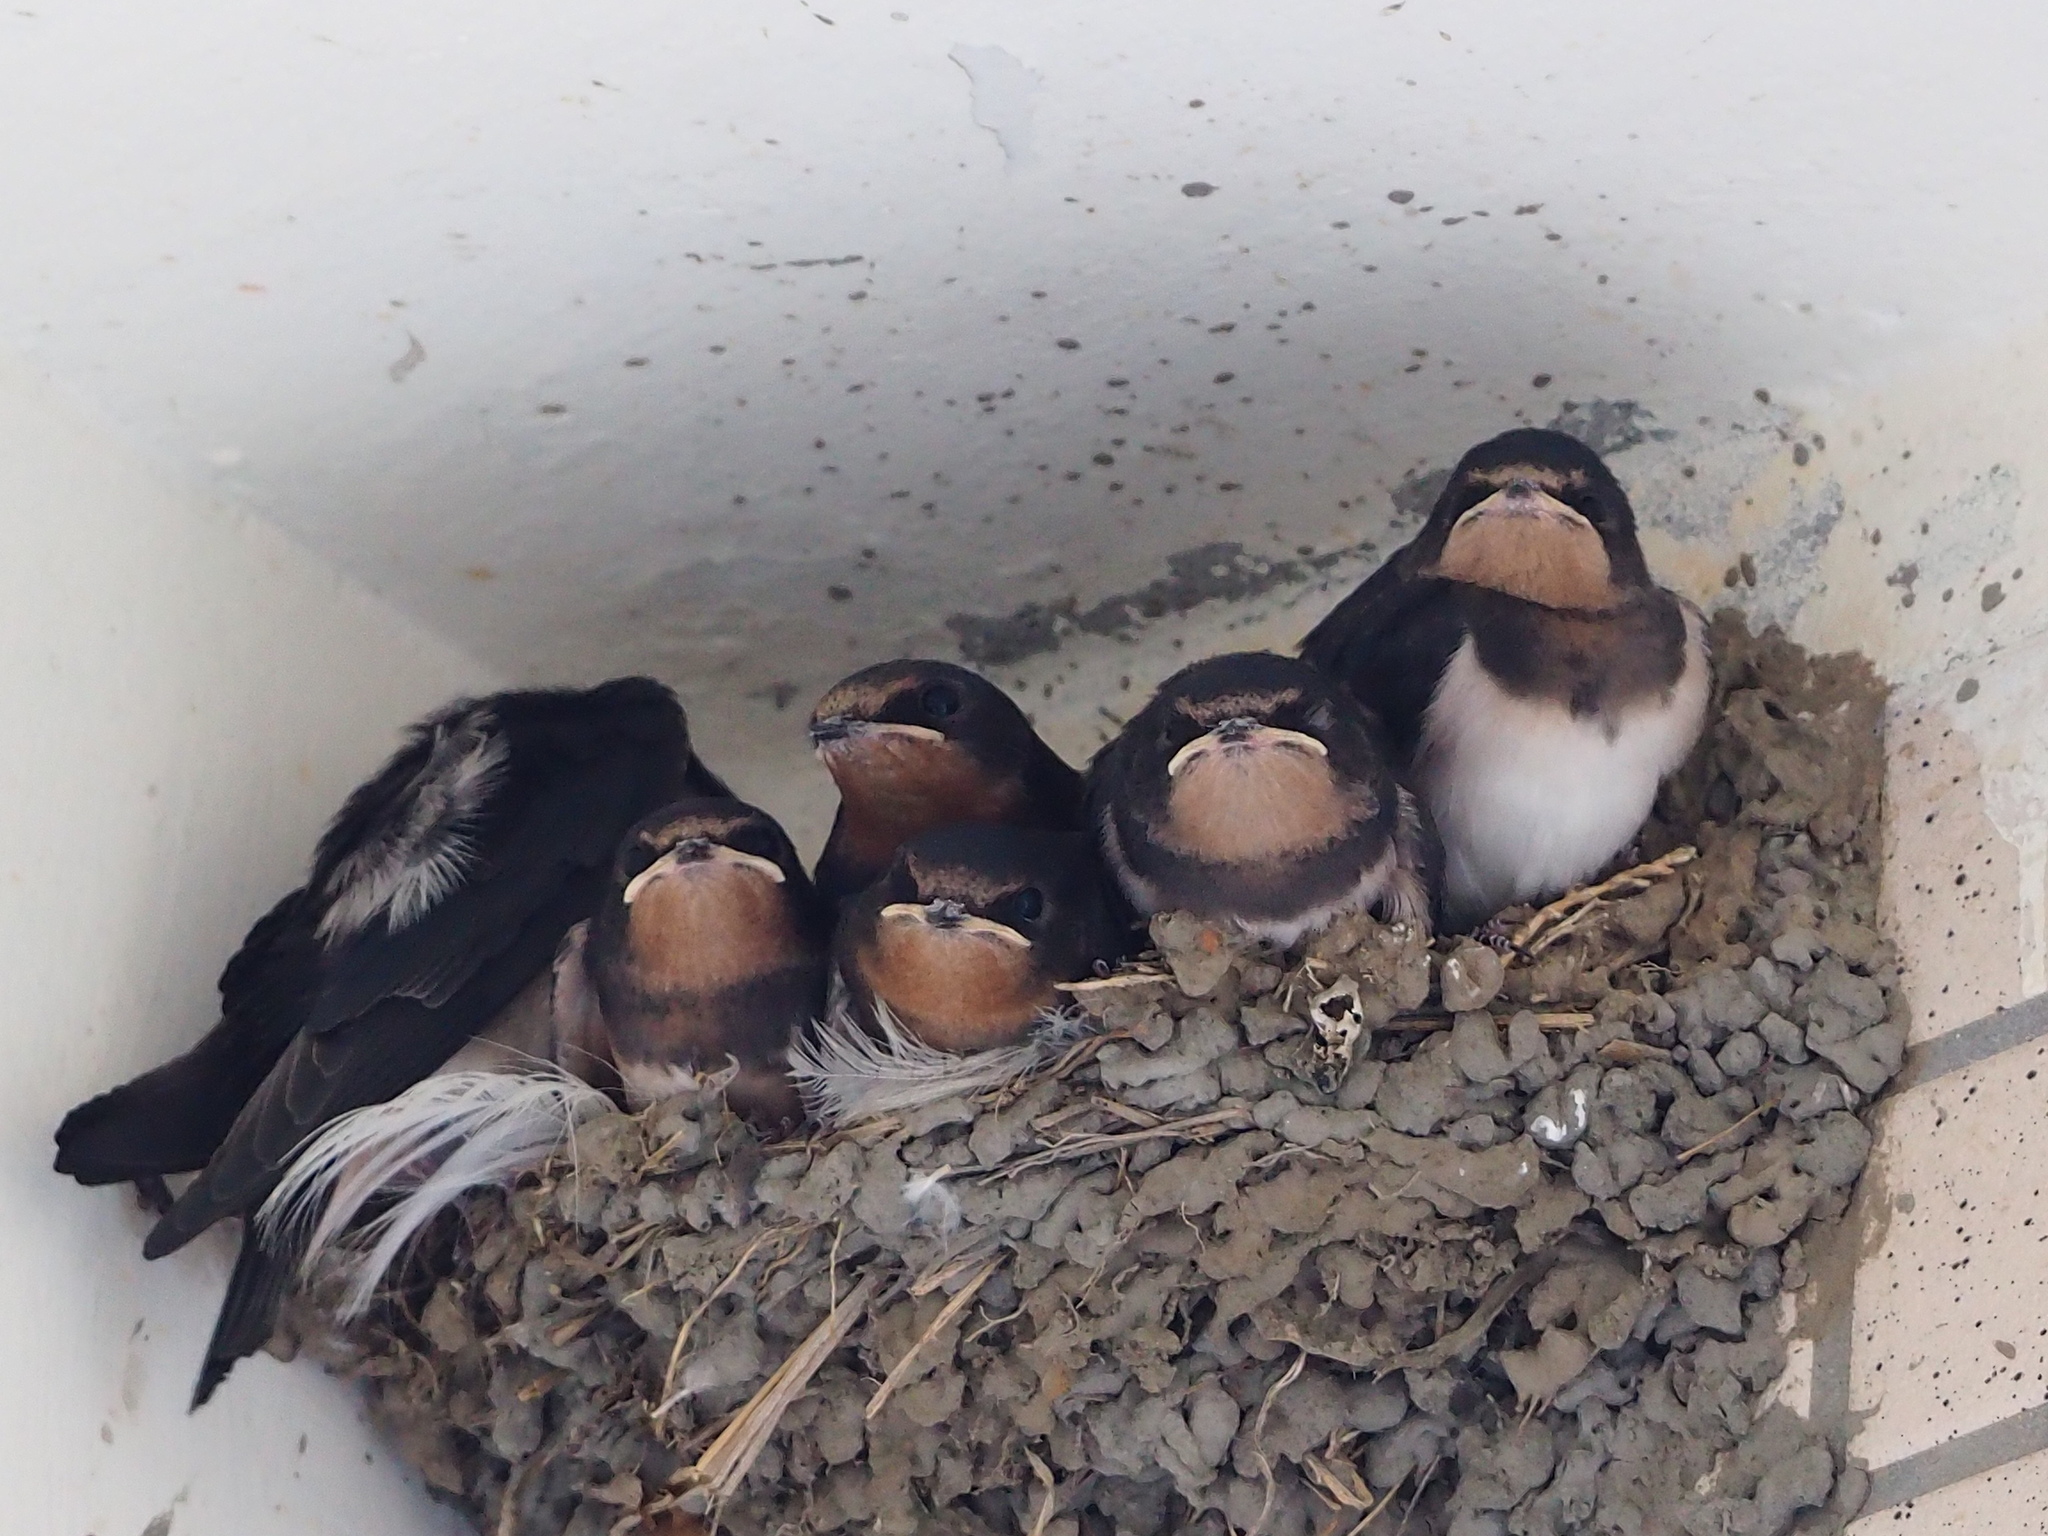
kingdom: Animalia
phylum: Chordata
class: Aves
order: Passeriformes
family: Hirundinidae
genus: Hirundo
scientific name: Hirundo rustica
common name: Barn swallow
